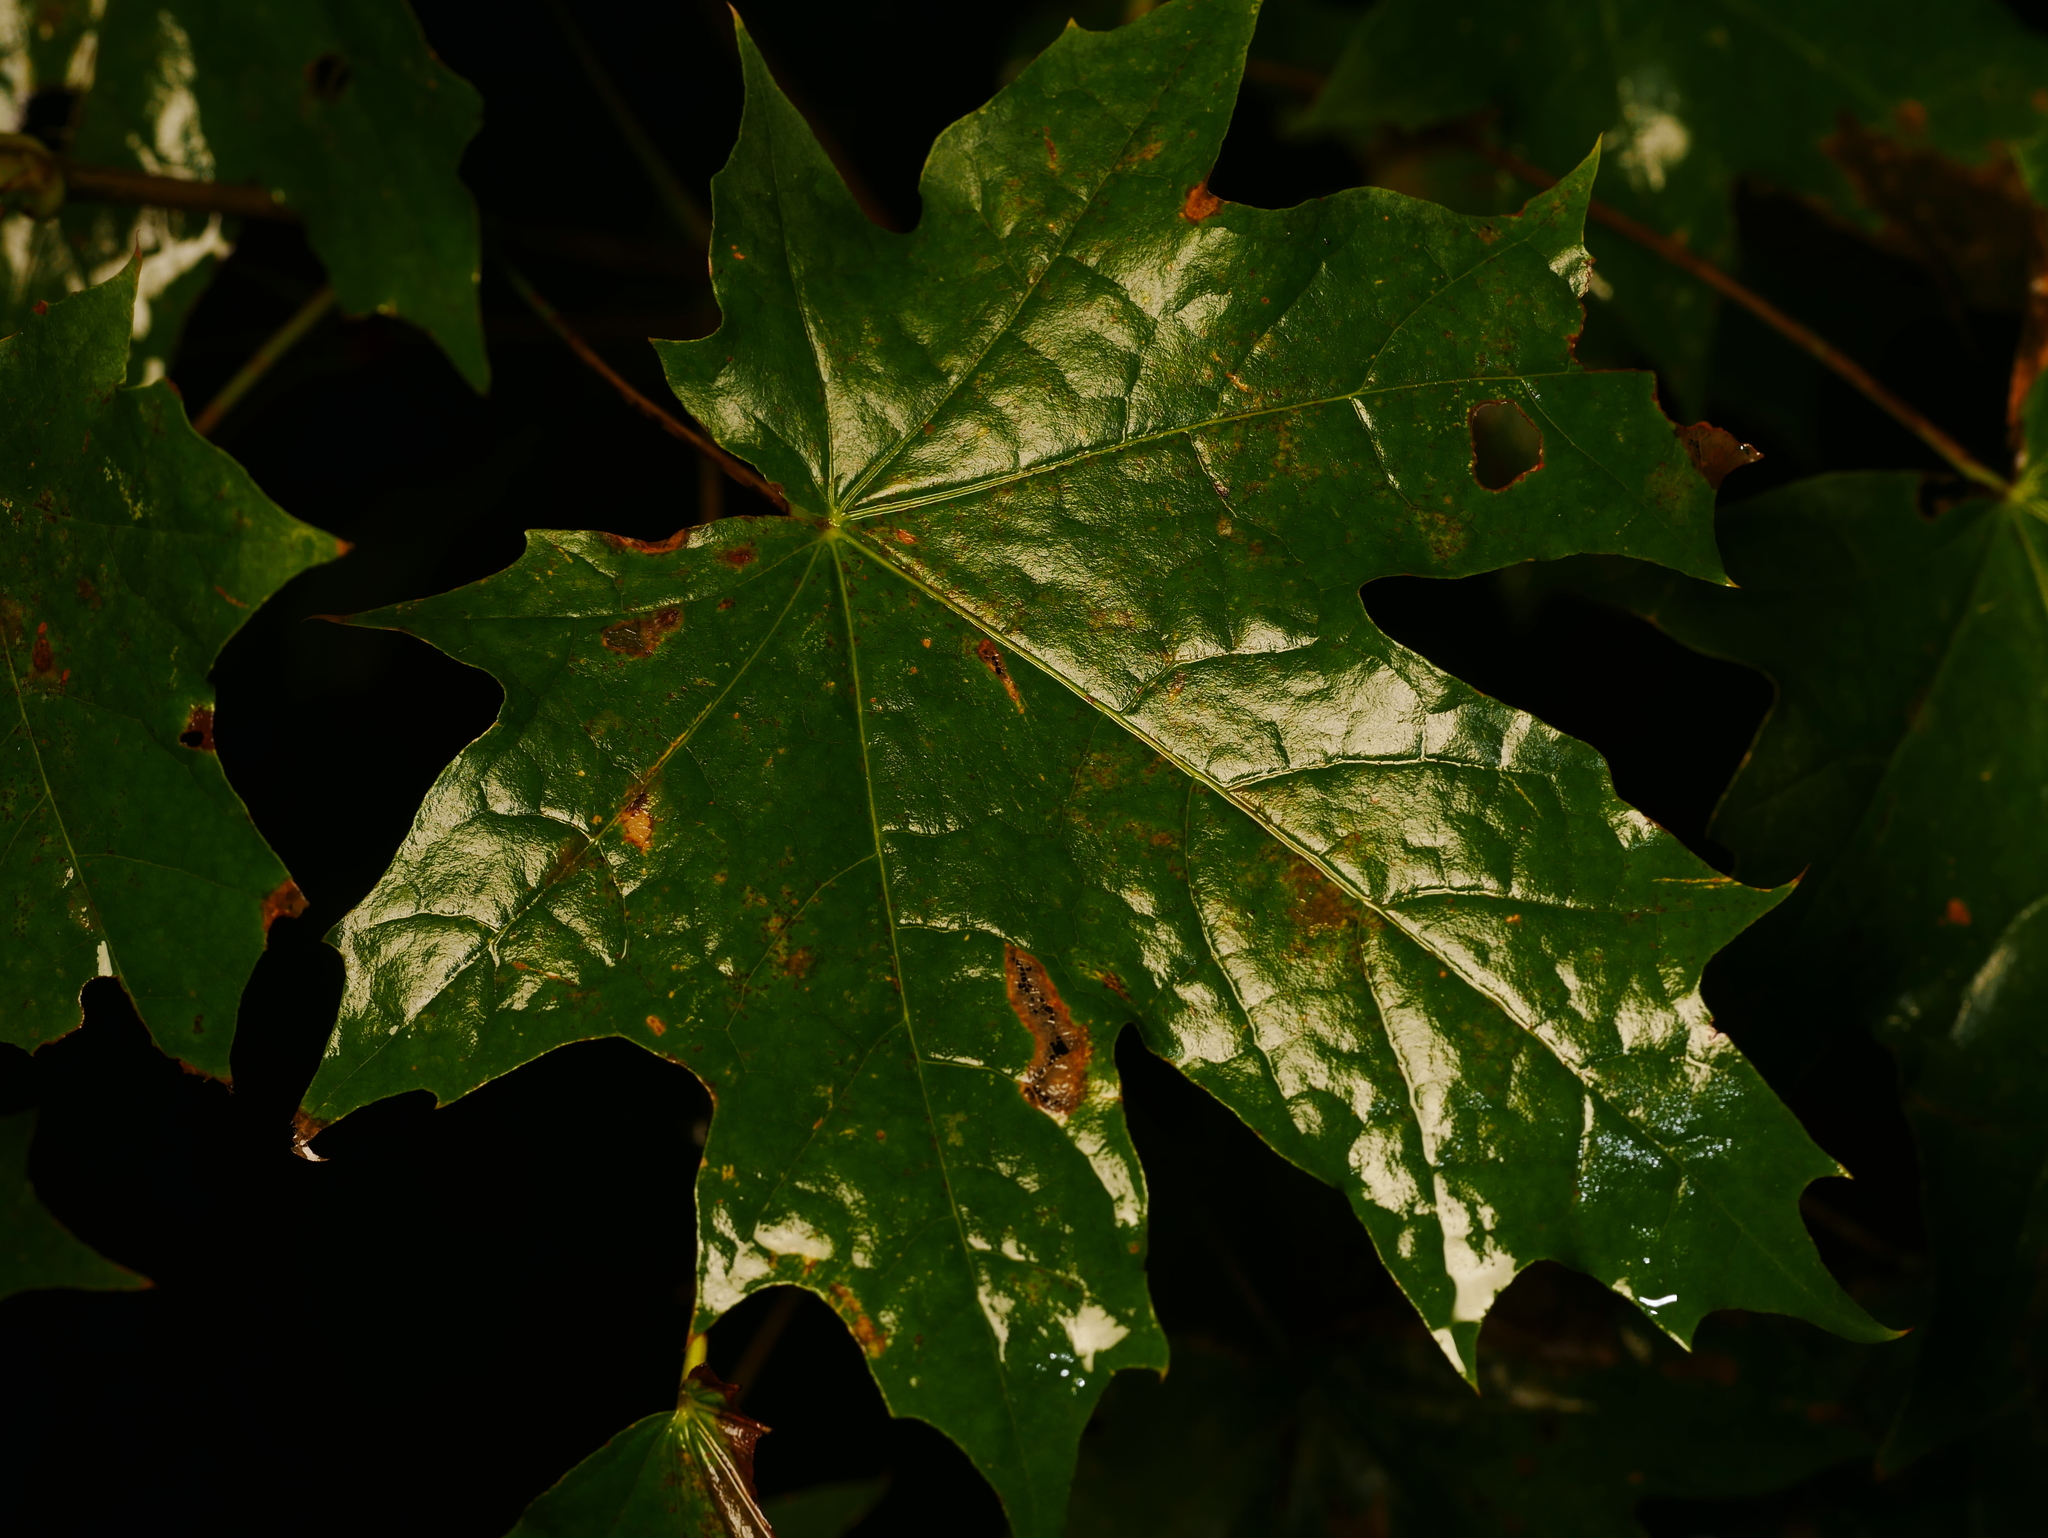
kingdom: Plantae
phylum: Tracheophyta
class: Magnoliopsida
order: Sapindales
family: Sapindaceae
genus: Acer
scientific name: Acer platanoides
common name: Norway maple
